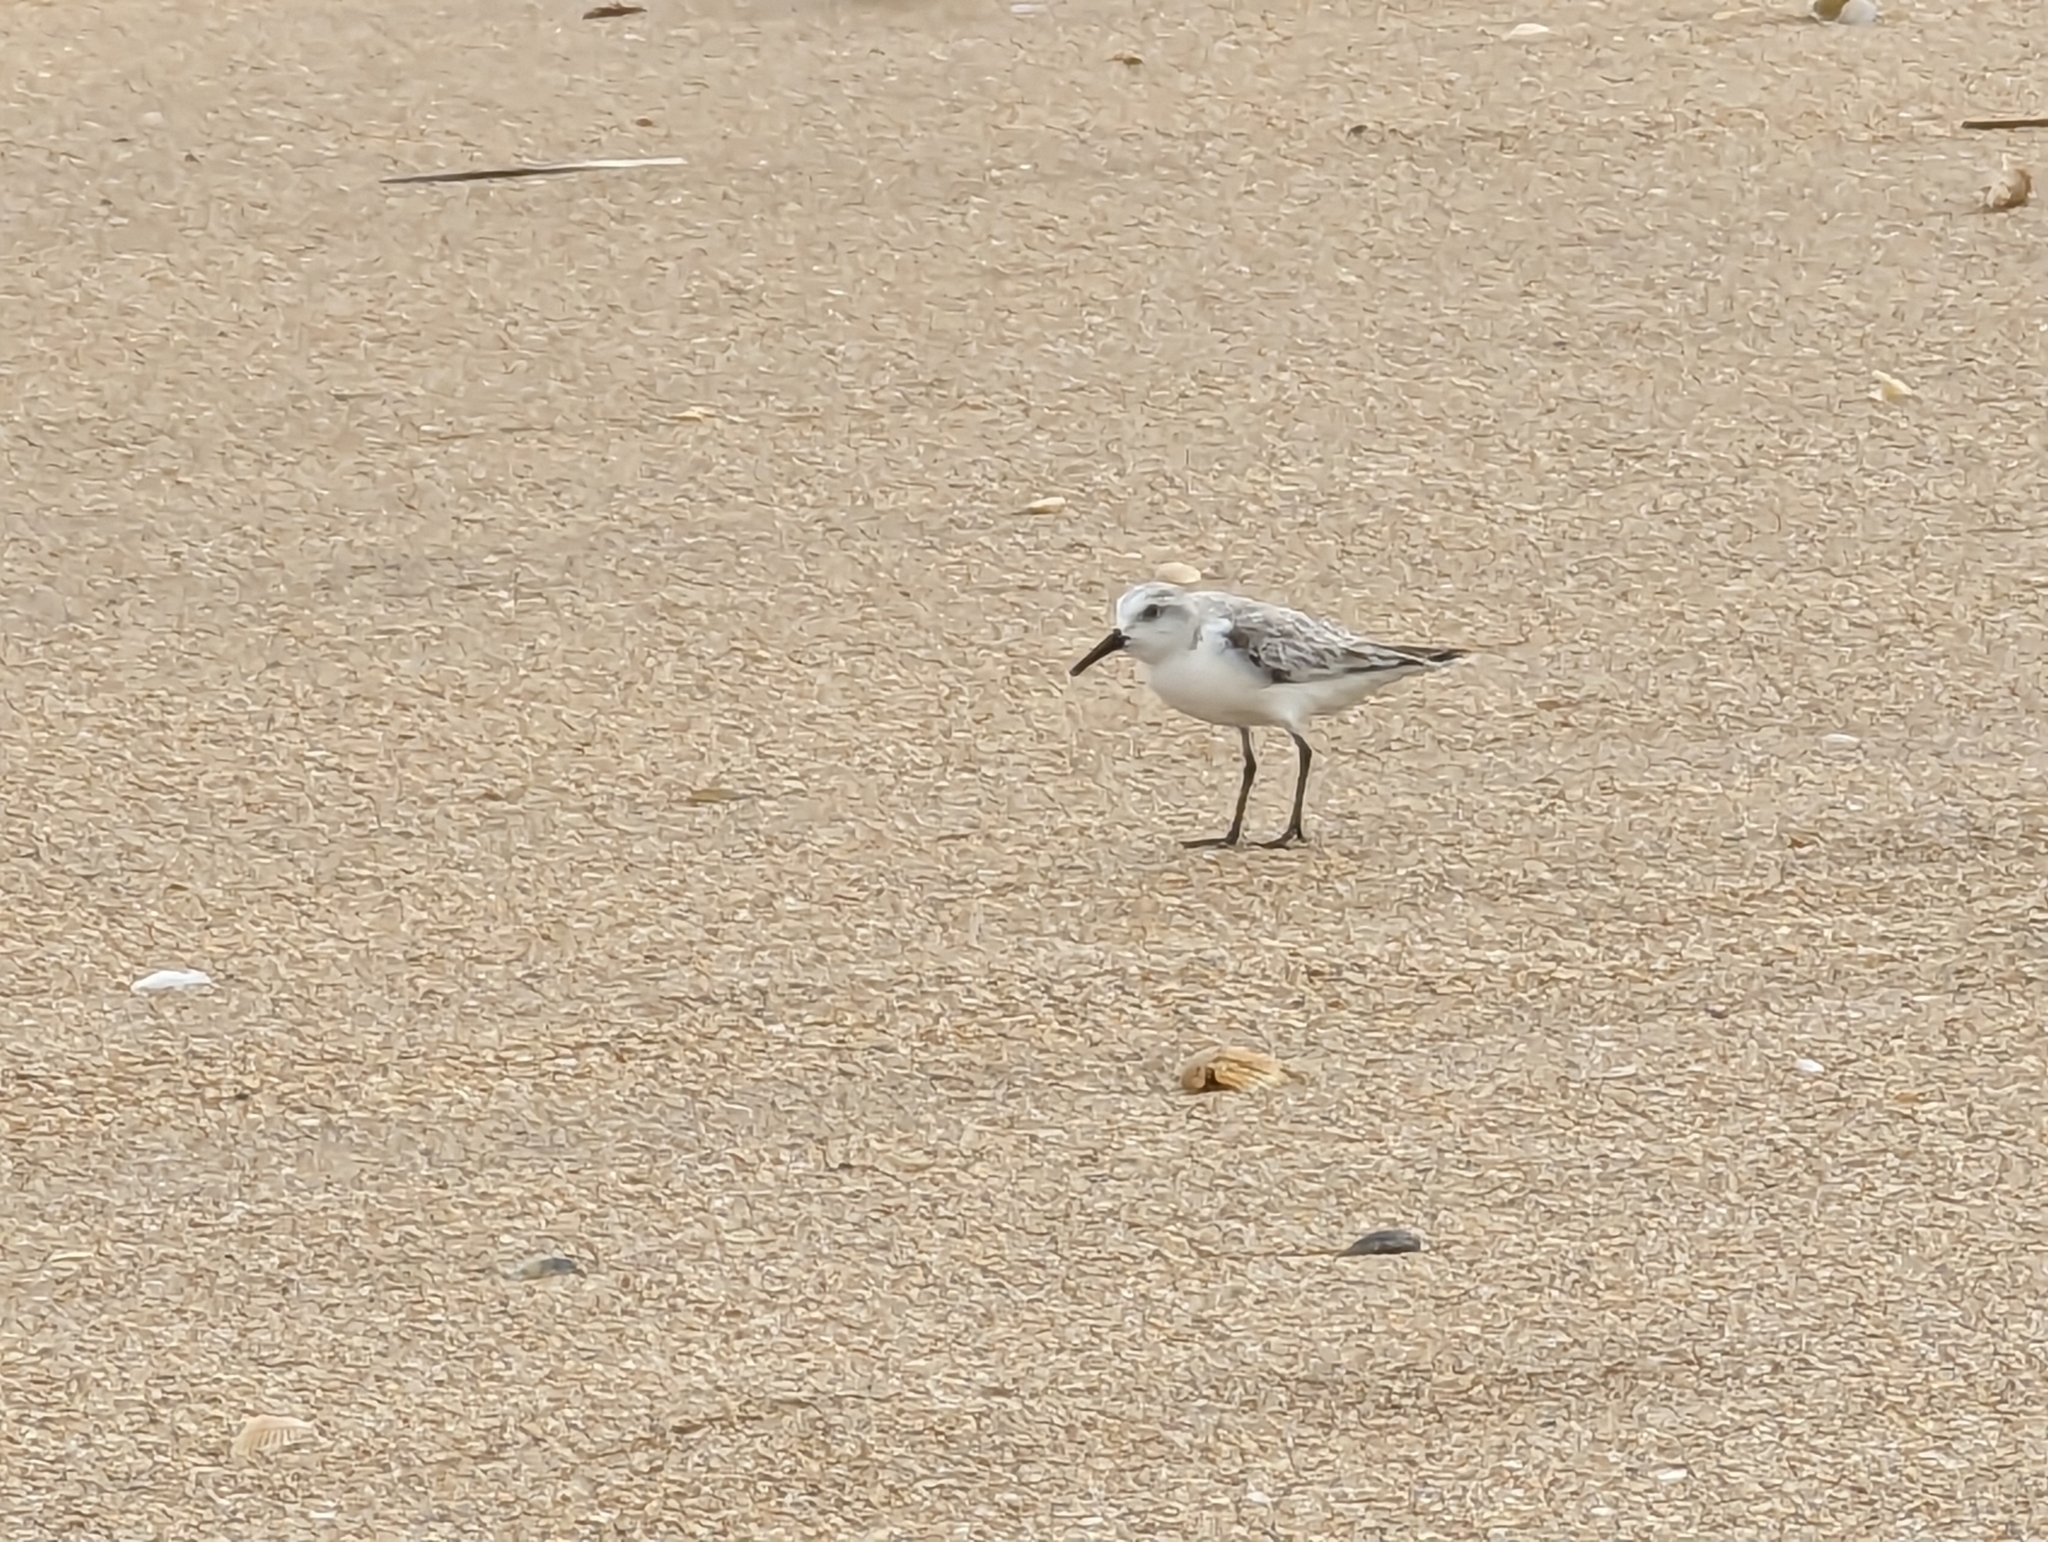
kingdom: Animalia
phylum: Chordata
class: Aves
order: Charadriiformes
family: Scolopacidae
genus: Calidris
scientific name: Calidris alba
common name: Sanderling
